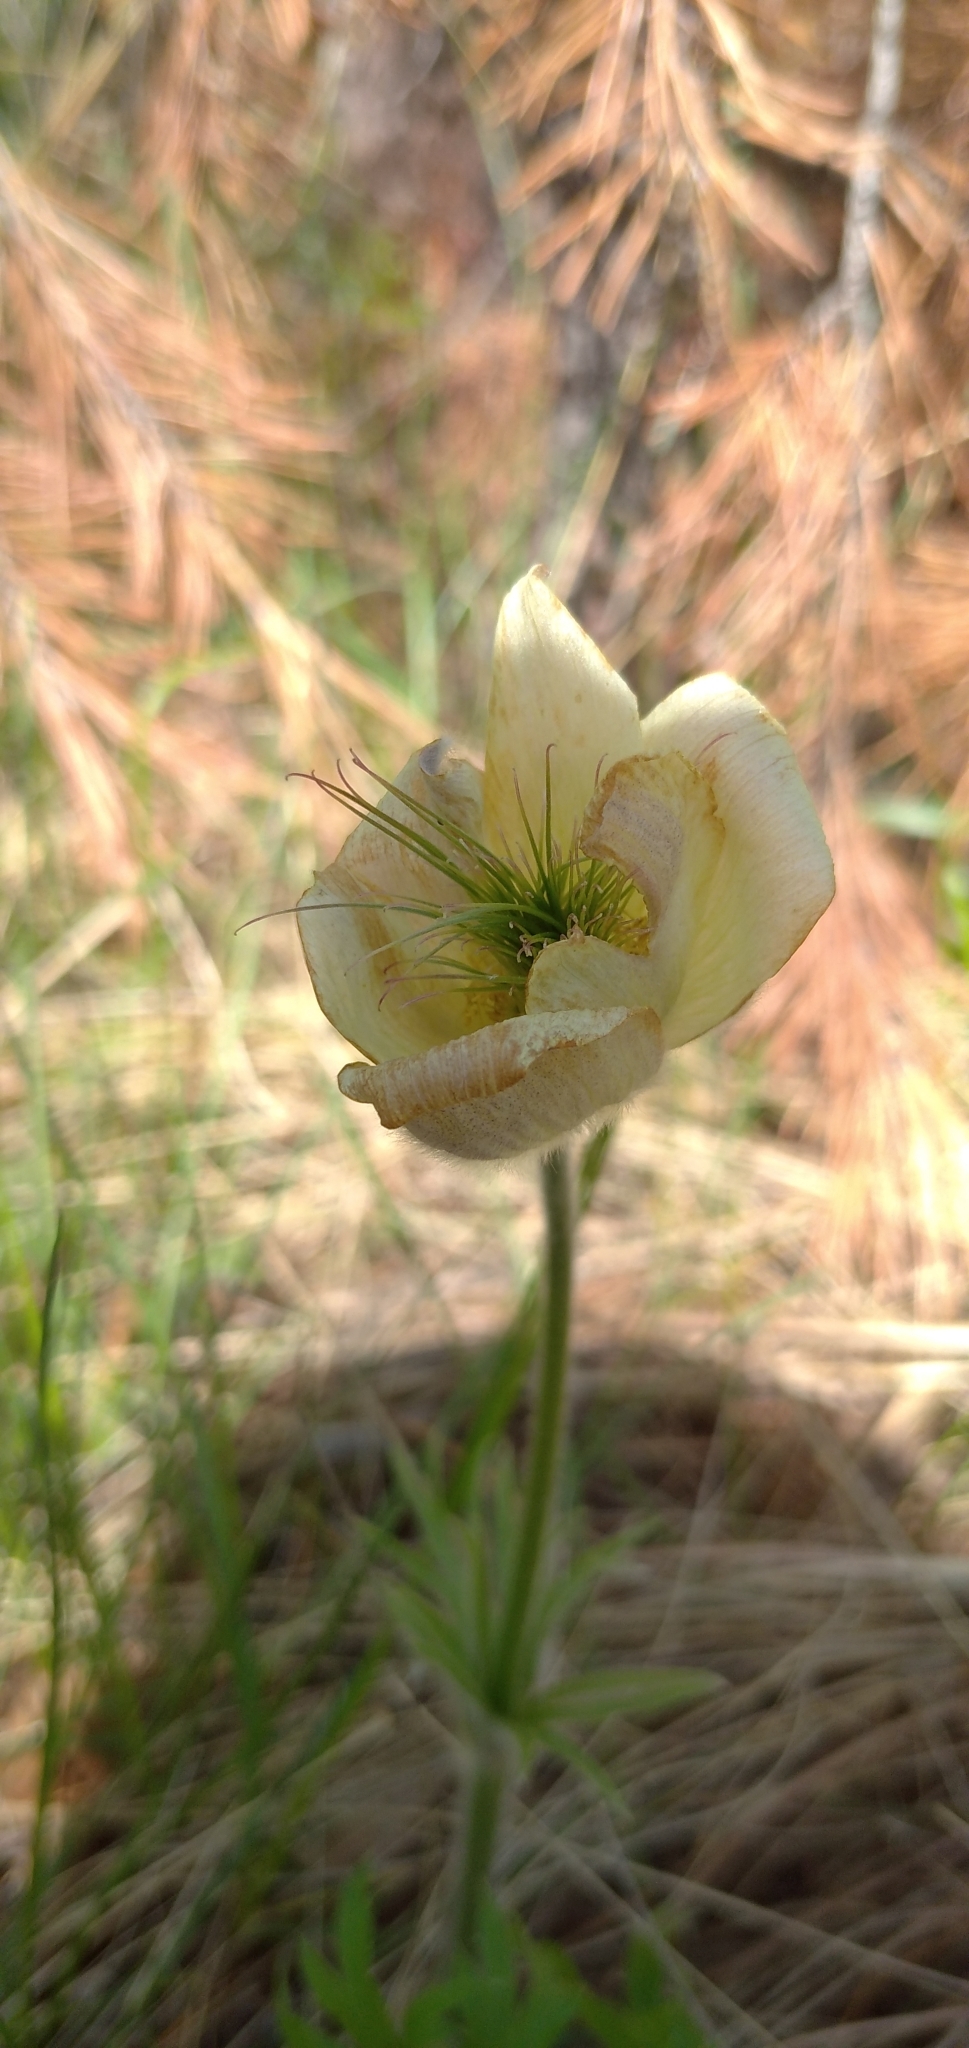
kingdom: Plantae
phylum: Tracheophyta
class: Magnoliopsida
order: Ranunculales
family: Ranunculaceae
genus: Pulsatilla
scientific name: Pulsatilla patens
